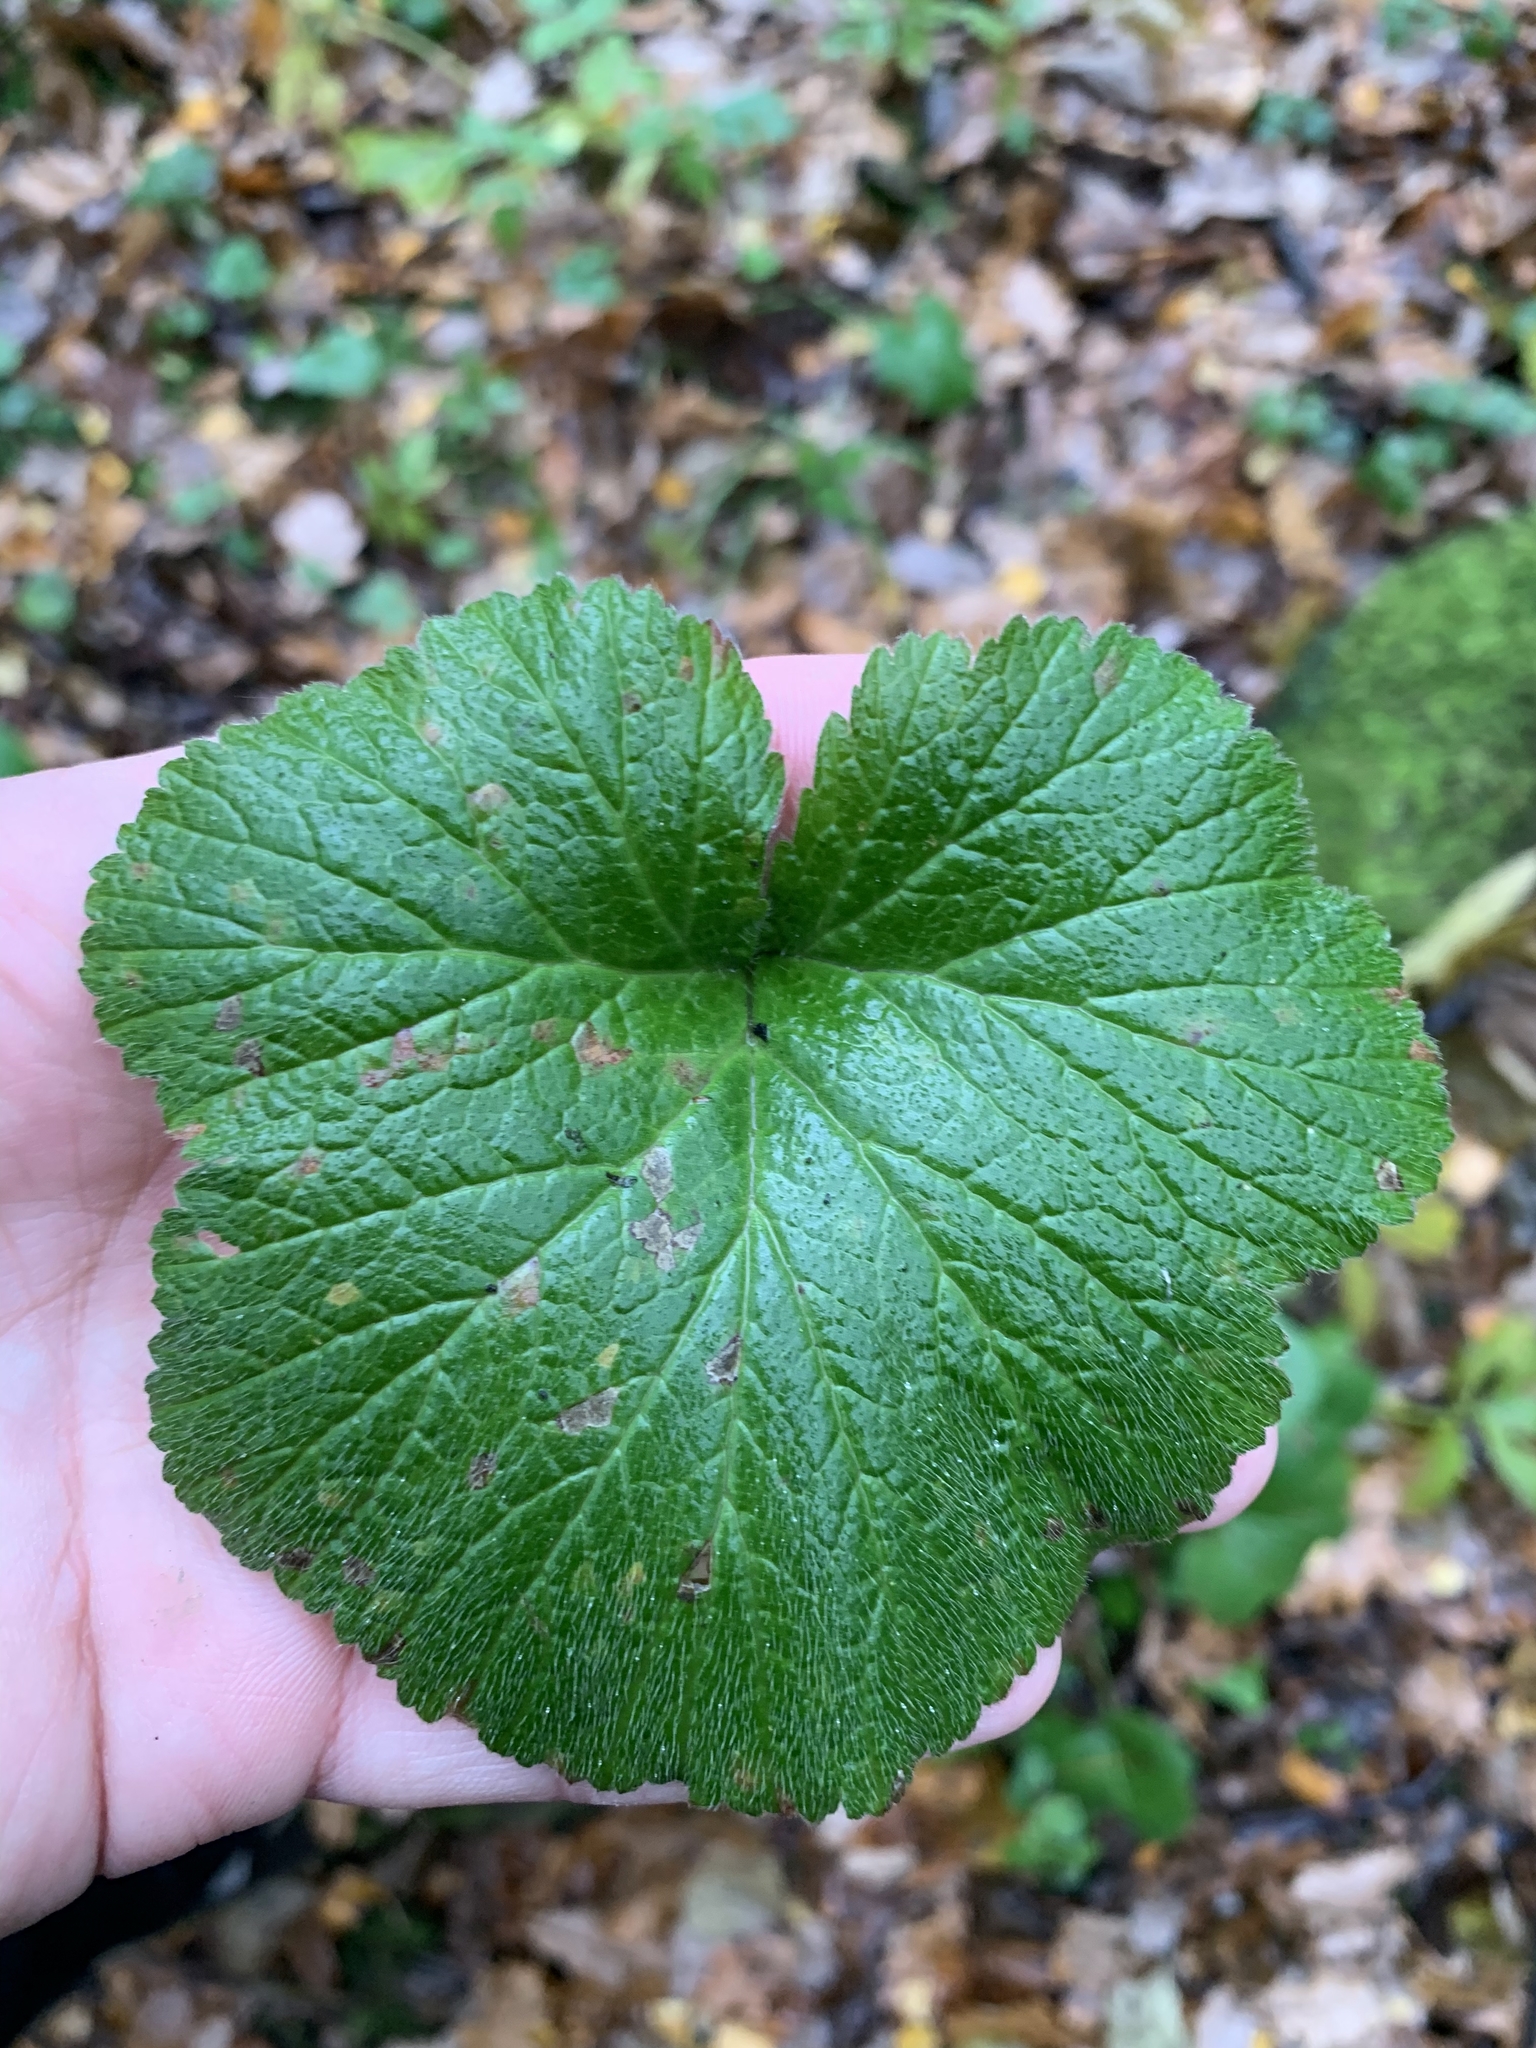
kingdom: Plantae
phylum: Tracheophyta
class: Magnoliopsida
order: Rosales
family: Rosaceae
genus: Geum
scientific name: Geum
